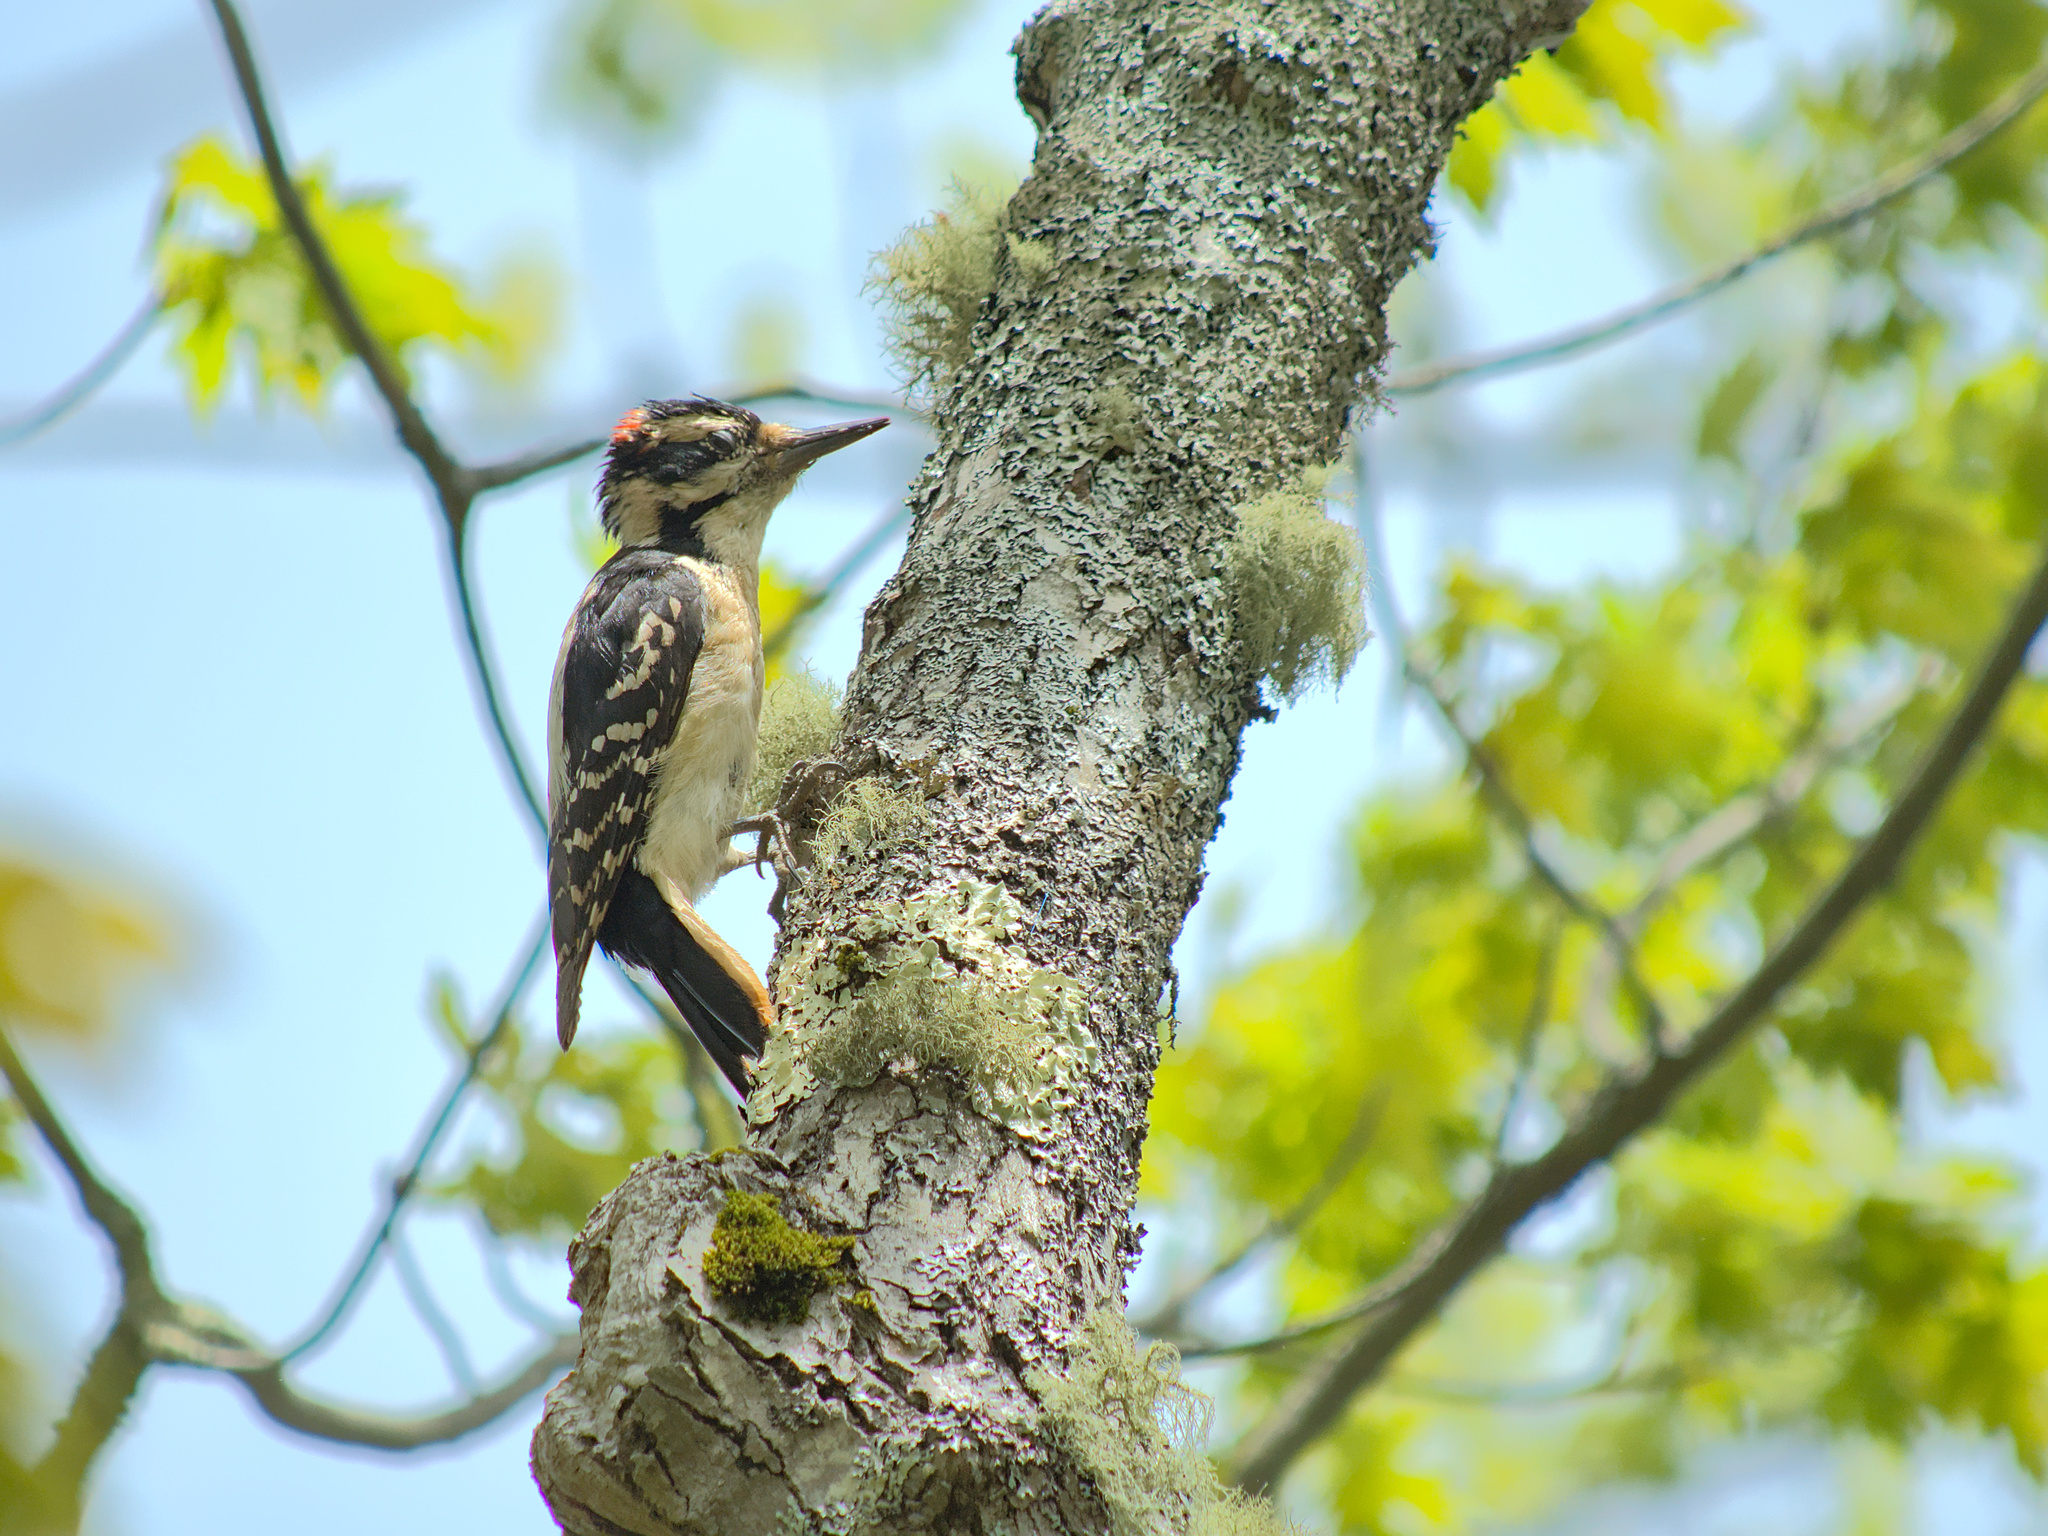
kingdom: Animalia
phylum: Chordata
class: Aves
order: Piciformes
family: Picidae
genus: Leuconotopicus
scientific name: Leuconotopicus villosus
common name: Hairy woodpecker
